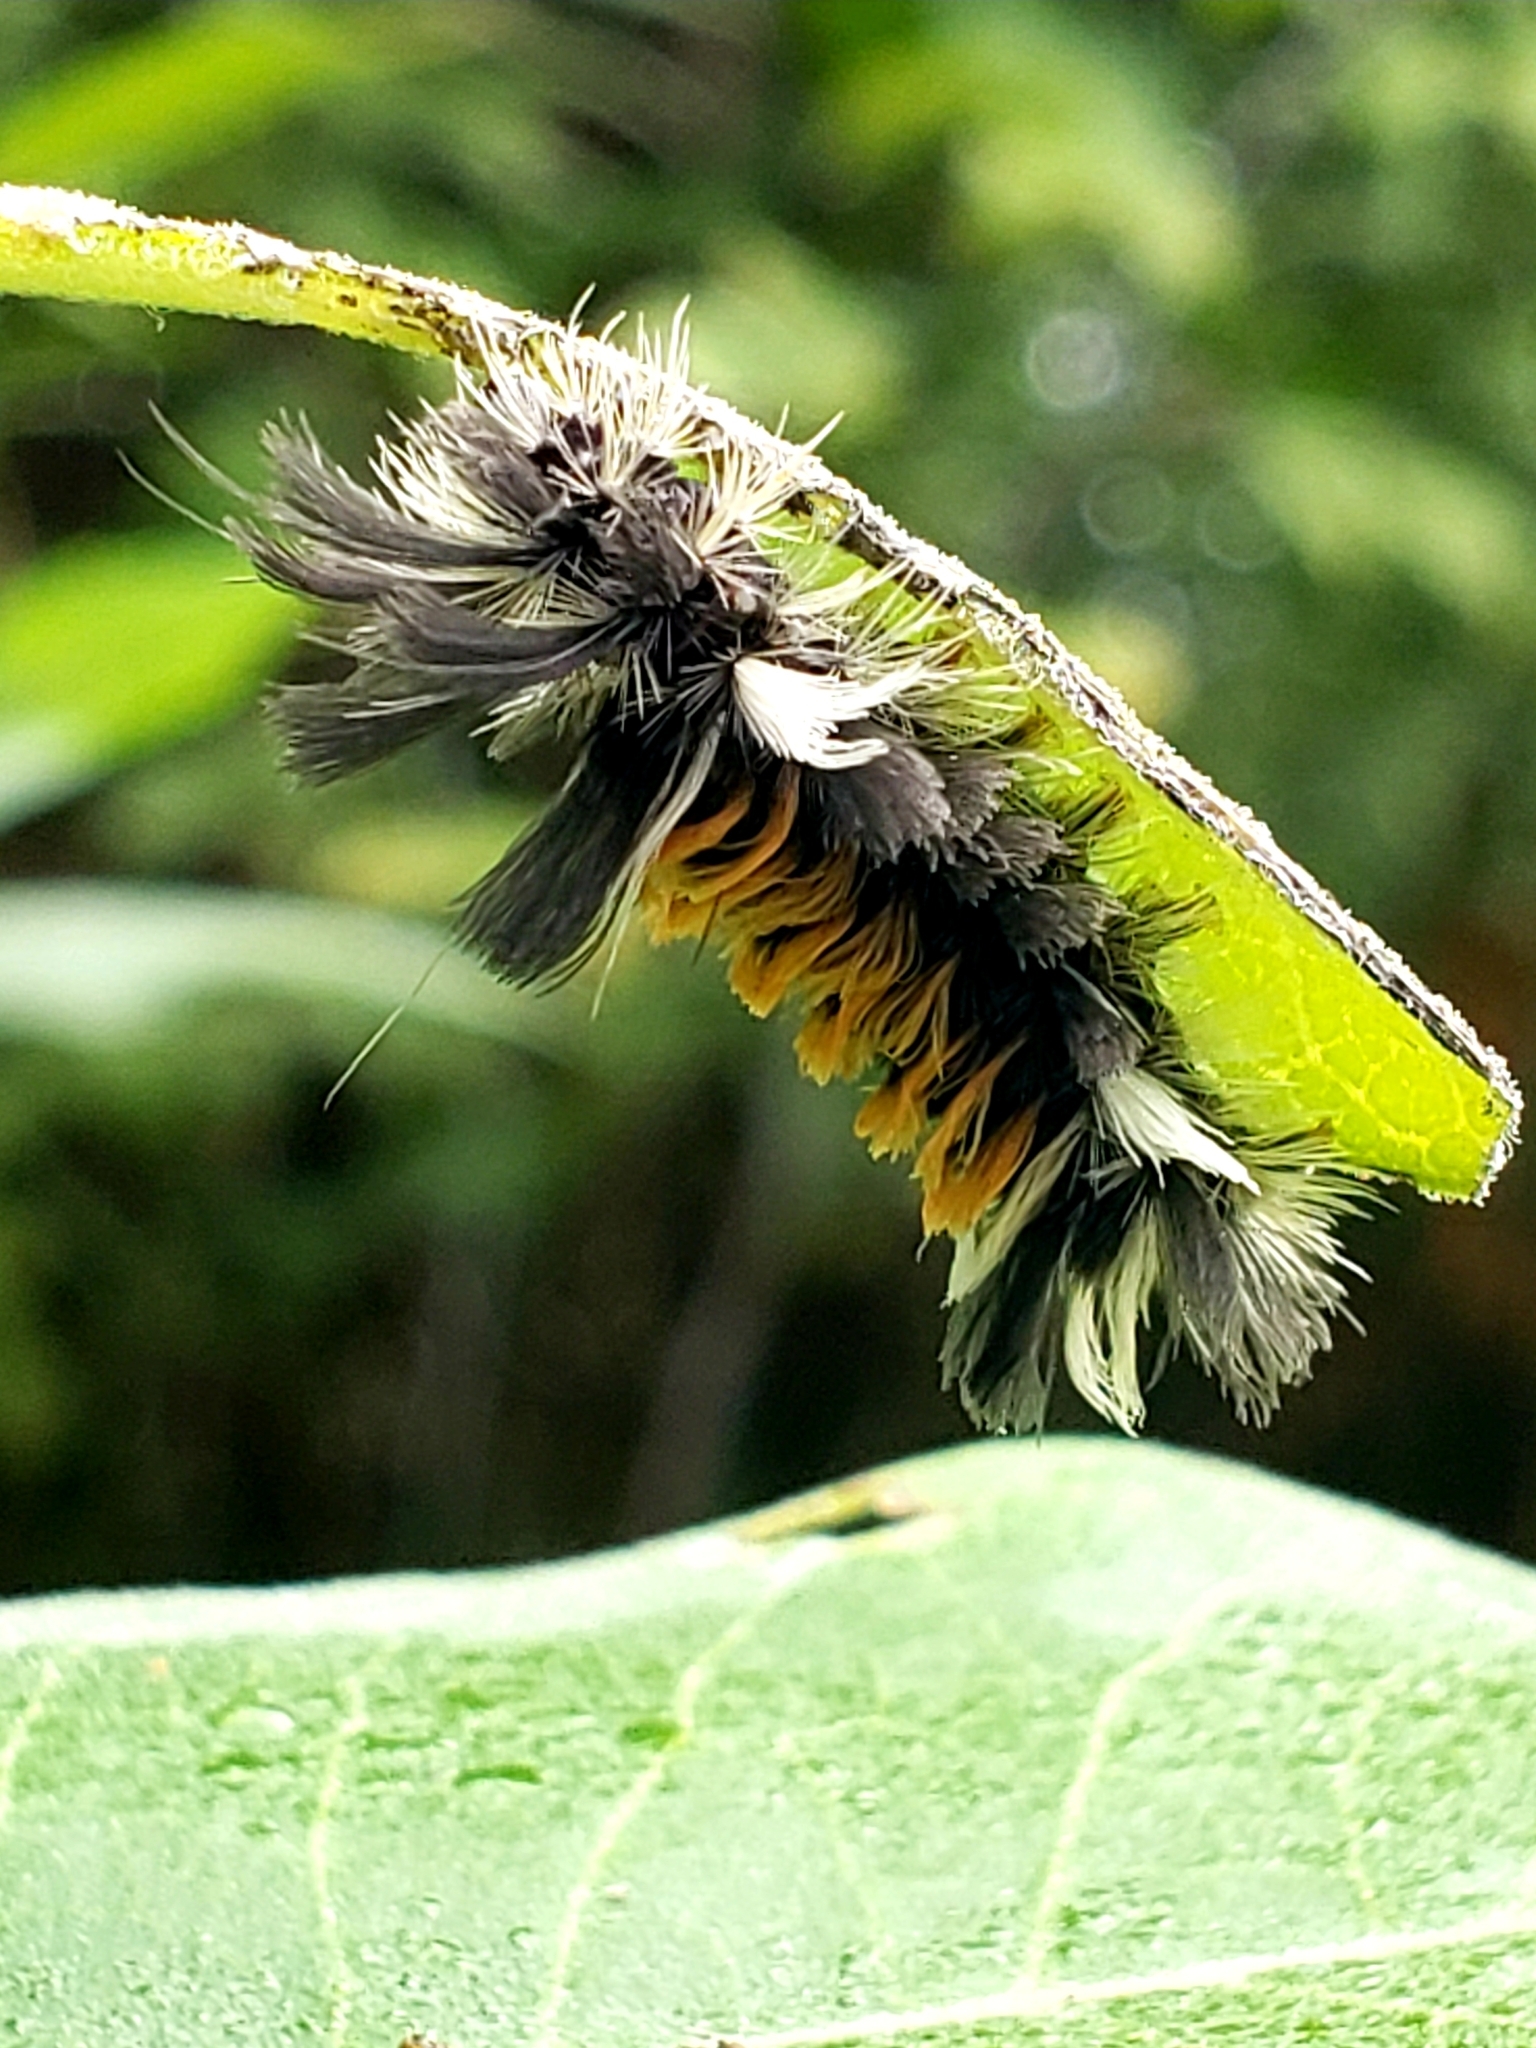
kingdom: Animalia
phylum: Arthropoda
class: Insecta
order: Lepidoptera
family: Erebidae
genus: Euchaetes
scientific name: Euchaetes egle
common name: Milkweed tussock moth
